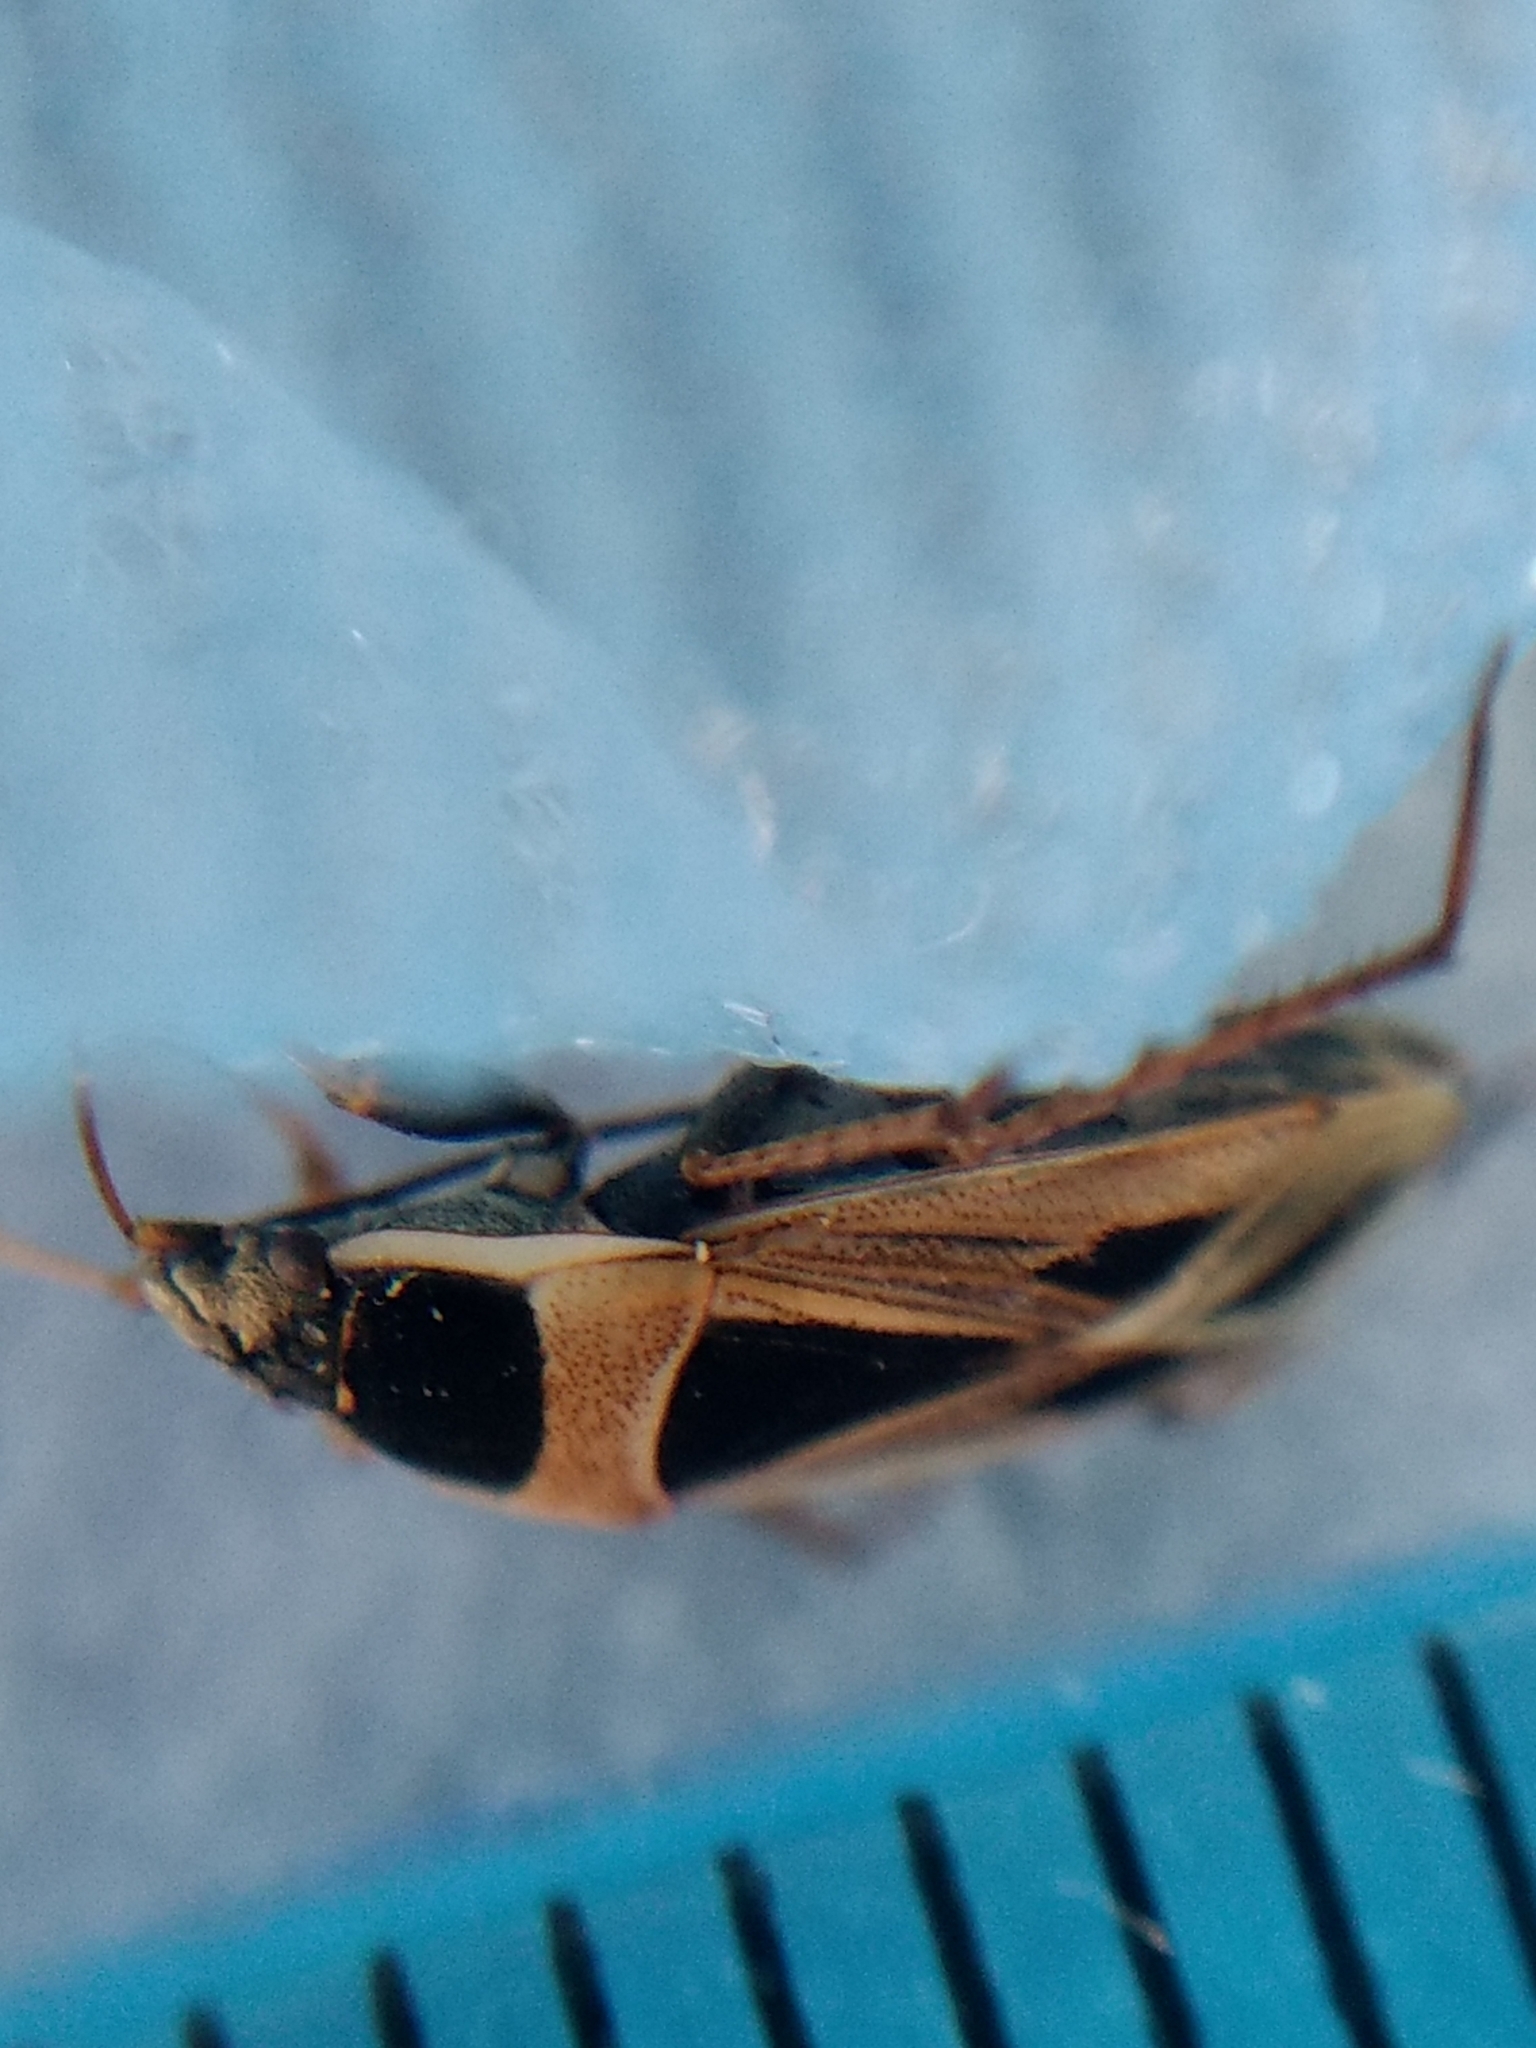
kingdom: Animalia
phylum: Arthropoda
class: Insecta
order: Hemiptera
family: Rhyparochromidae
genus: Xanthochilus
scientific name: Xanthochilus saturnius
